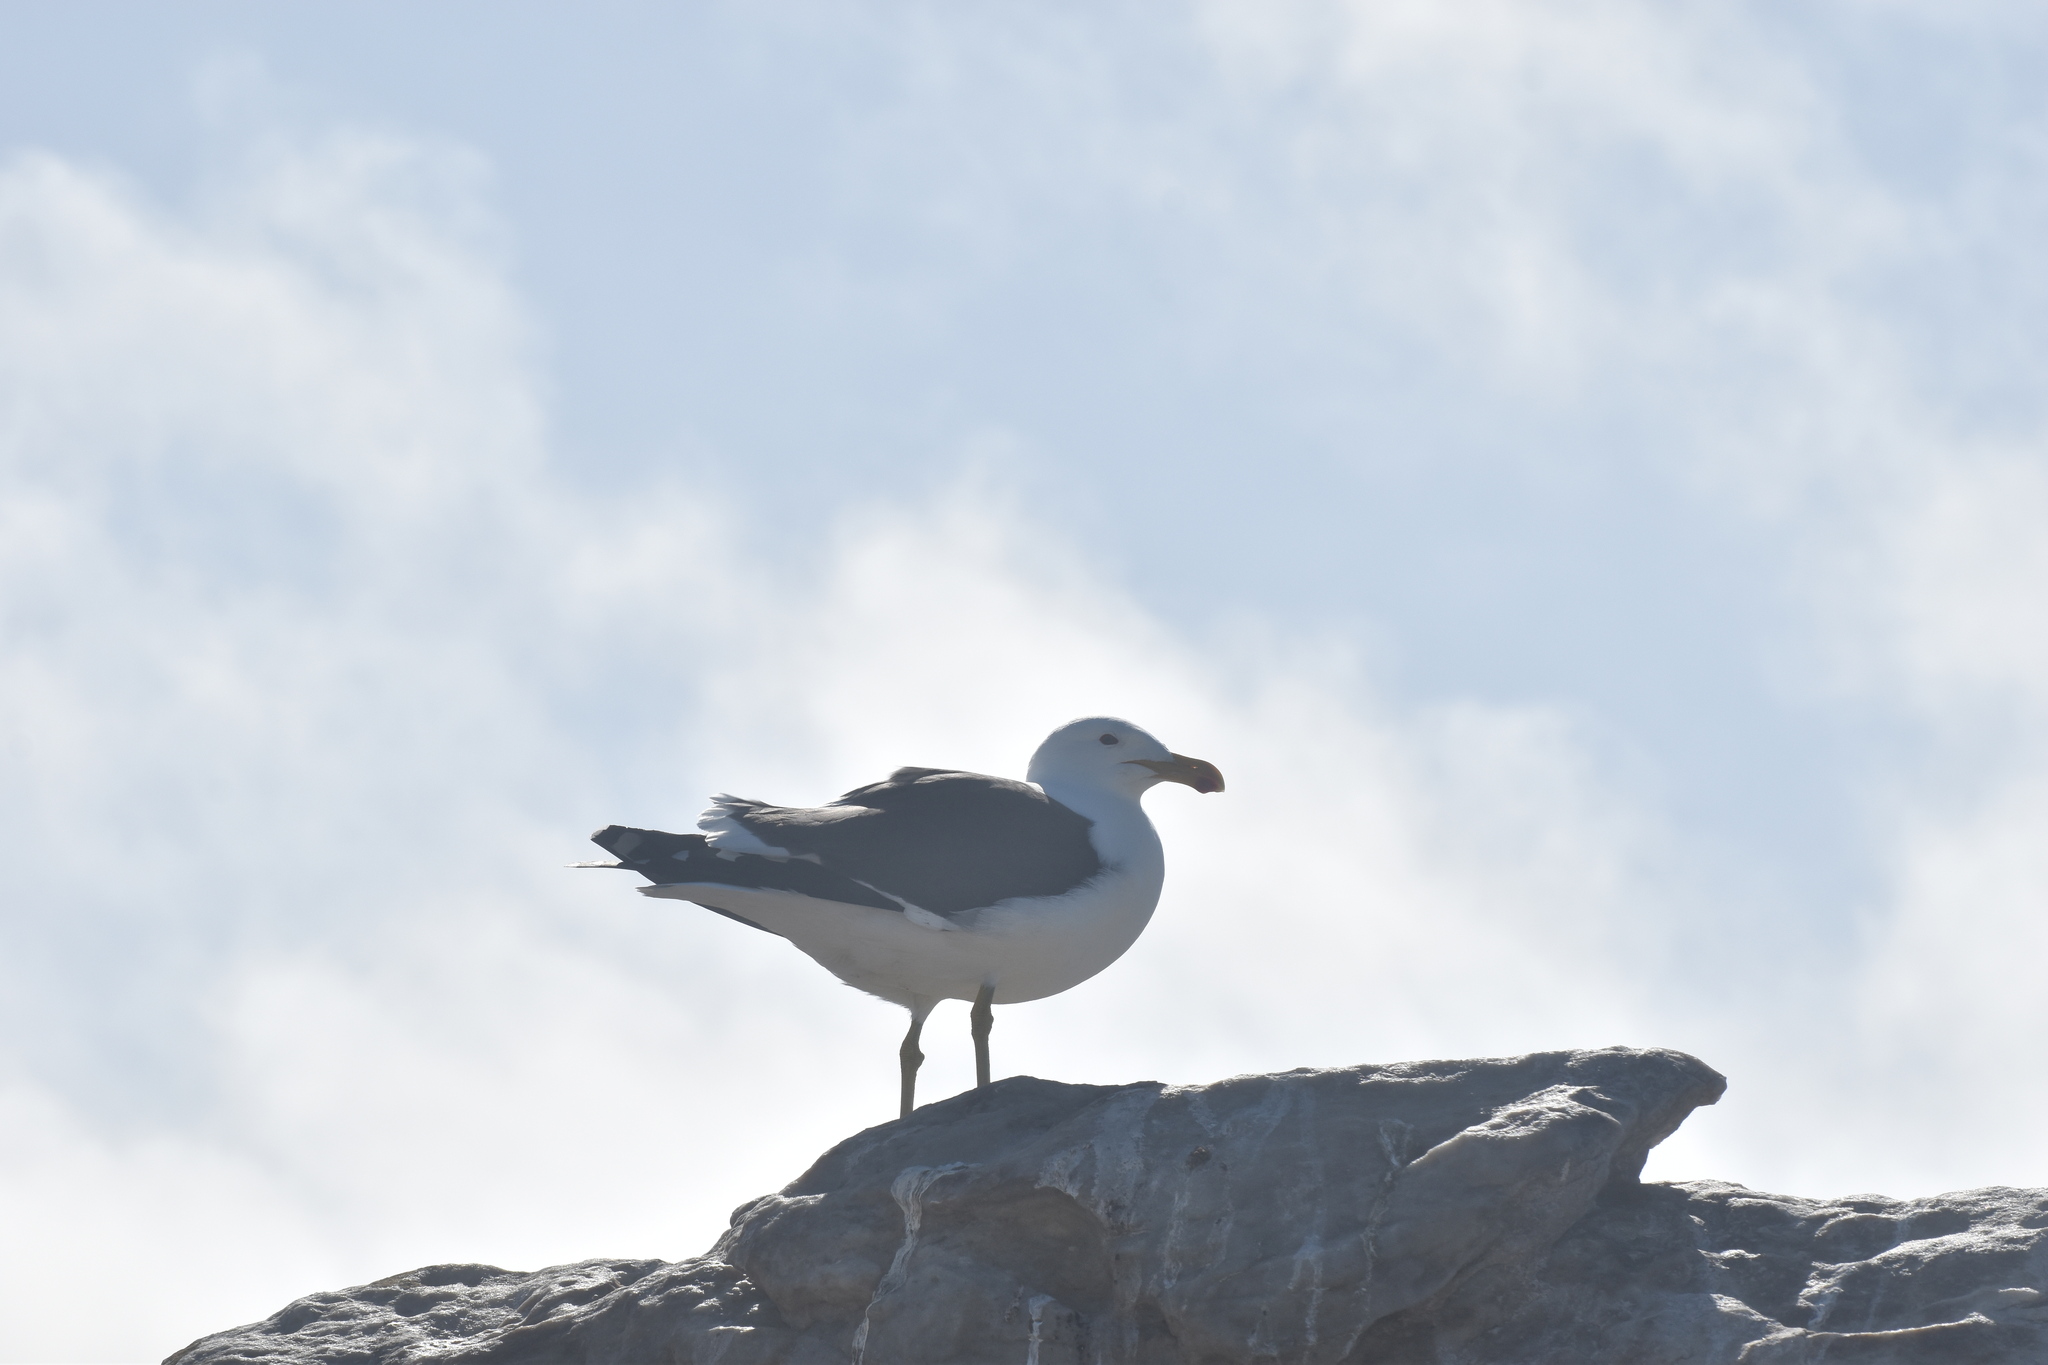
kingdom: Animalia
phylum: Chordata
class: Aves
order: Charadriiformes
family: Laridae
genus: Larus
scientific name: Larus dominicanus
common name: Kelp gull
